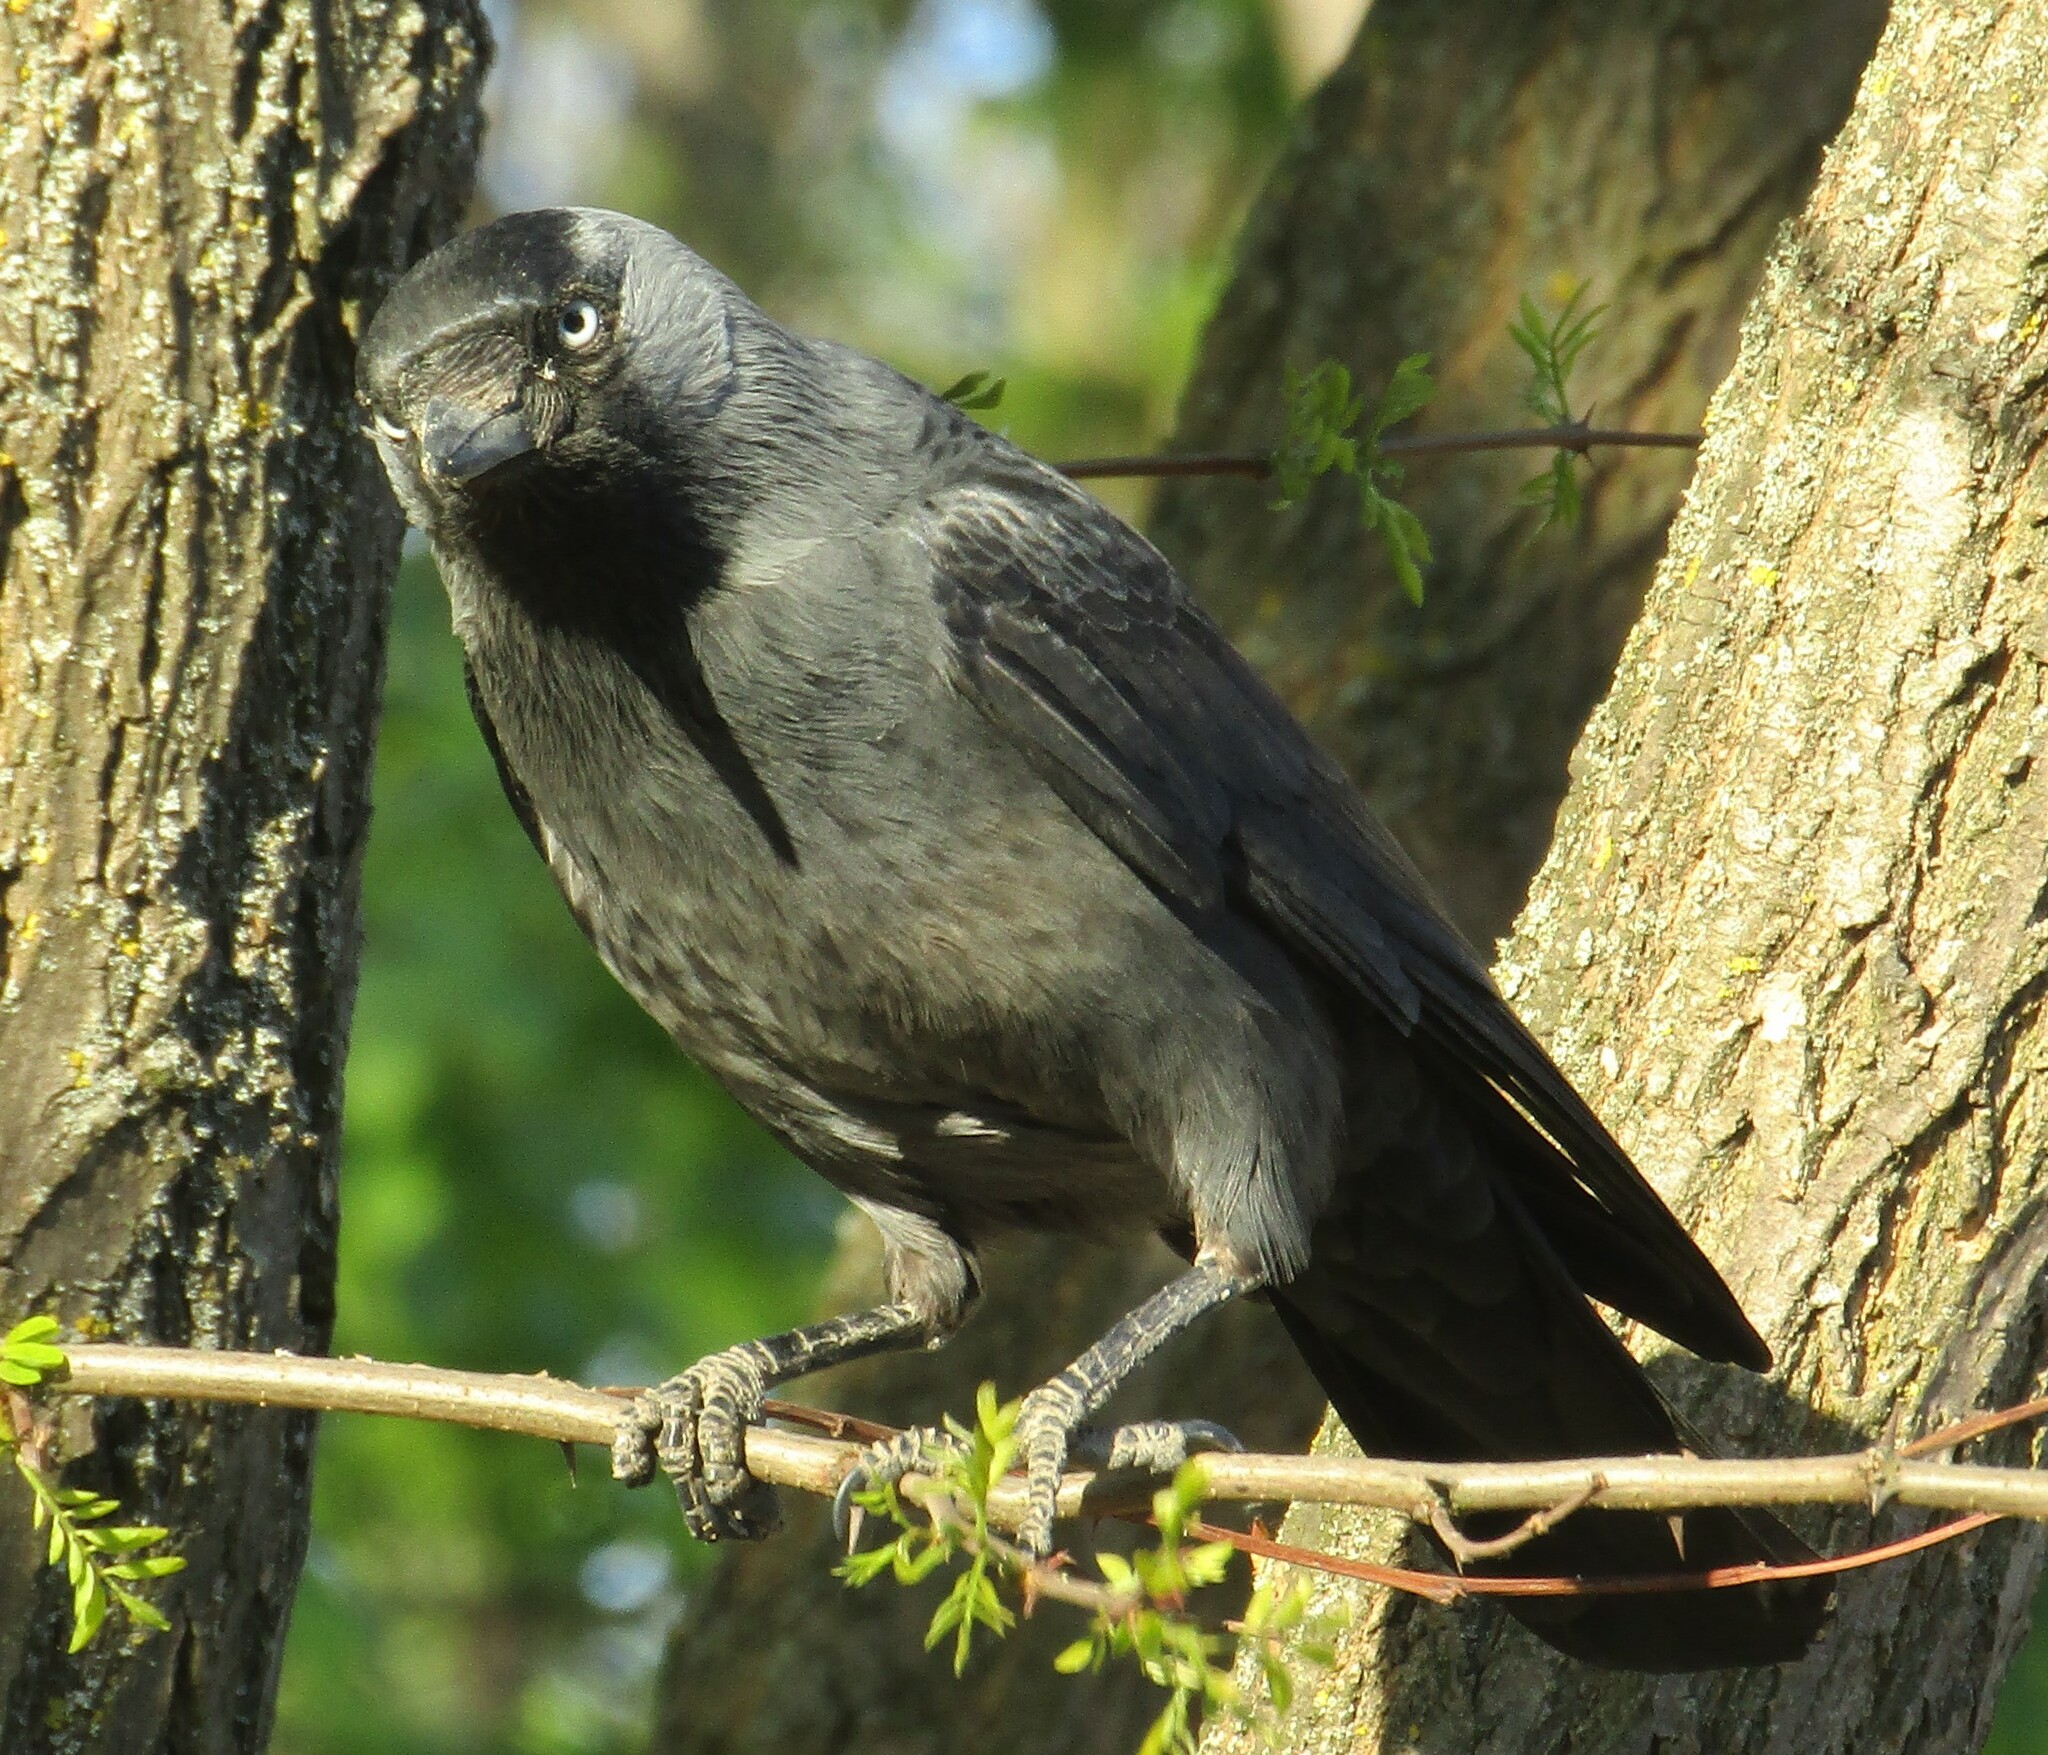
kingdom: Animalia
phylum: Chordata
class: Aves
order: Passeriformes
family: Corvidae
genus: Coloeus
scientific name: Coloeus monedula
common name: Western jackdaw
